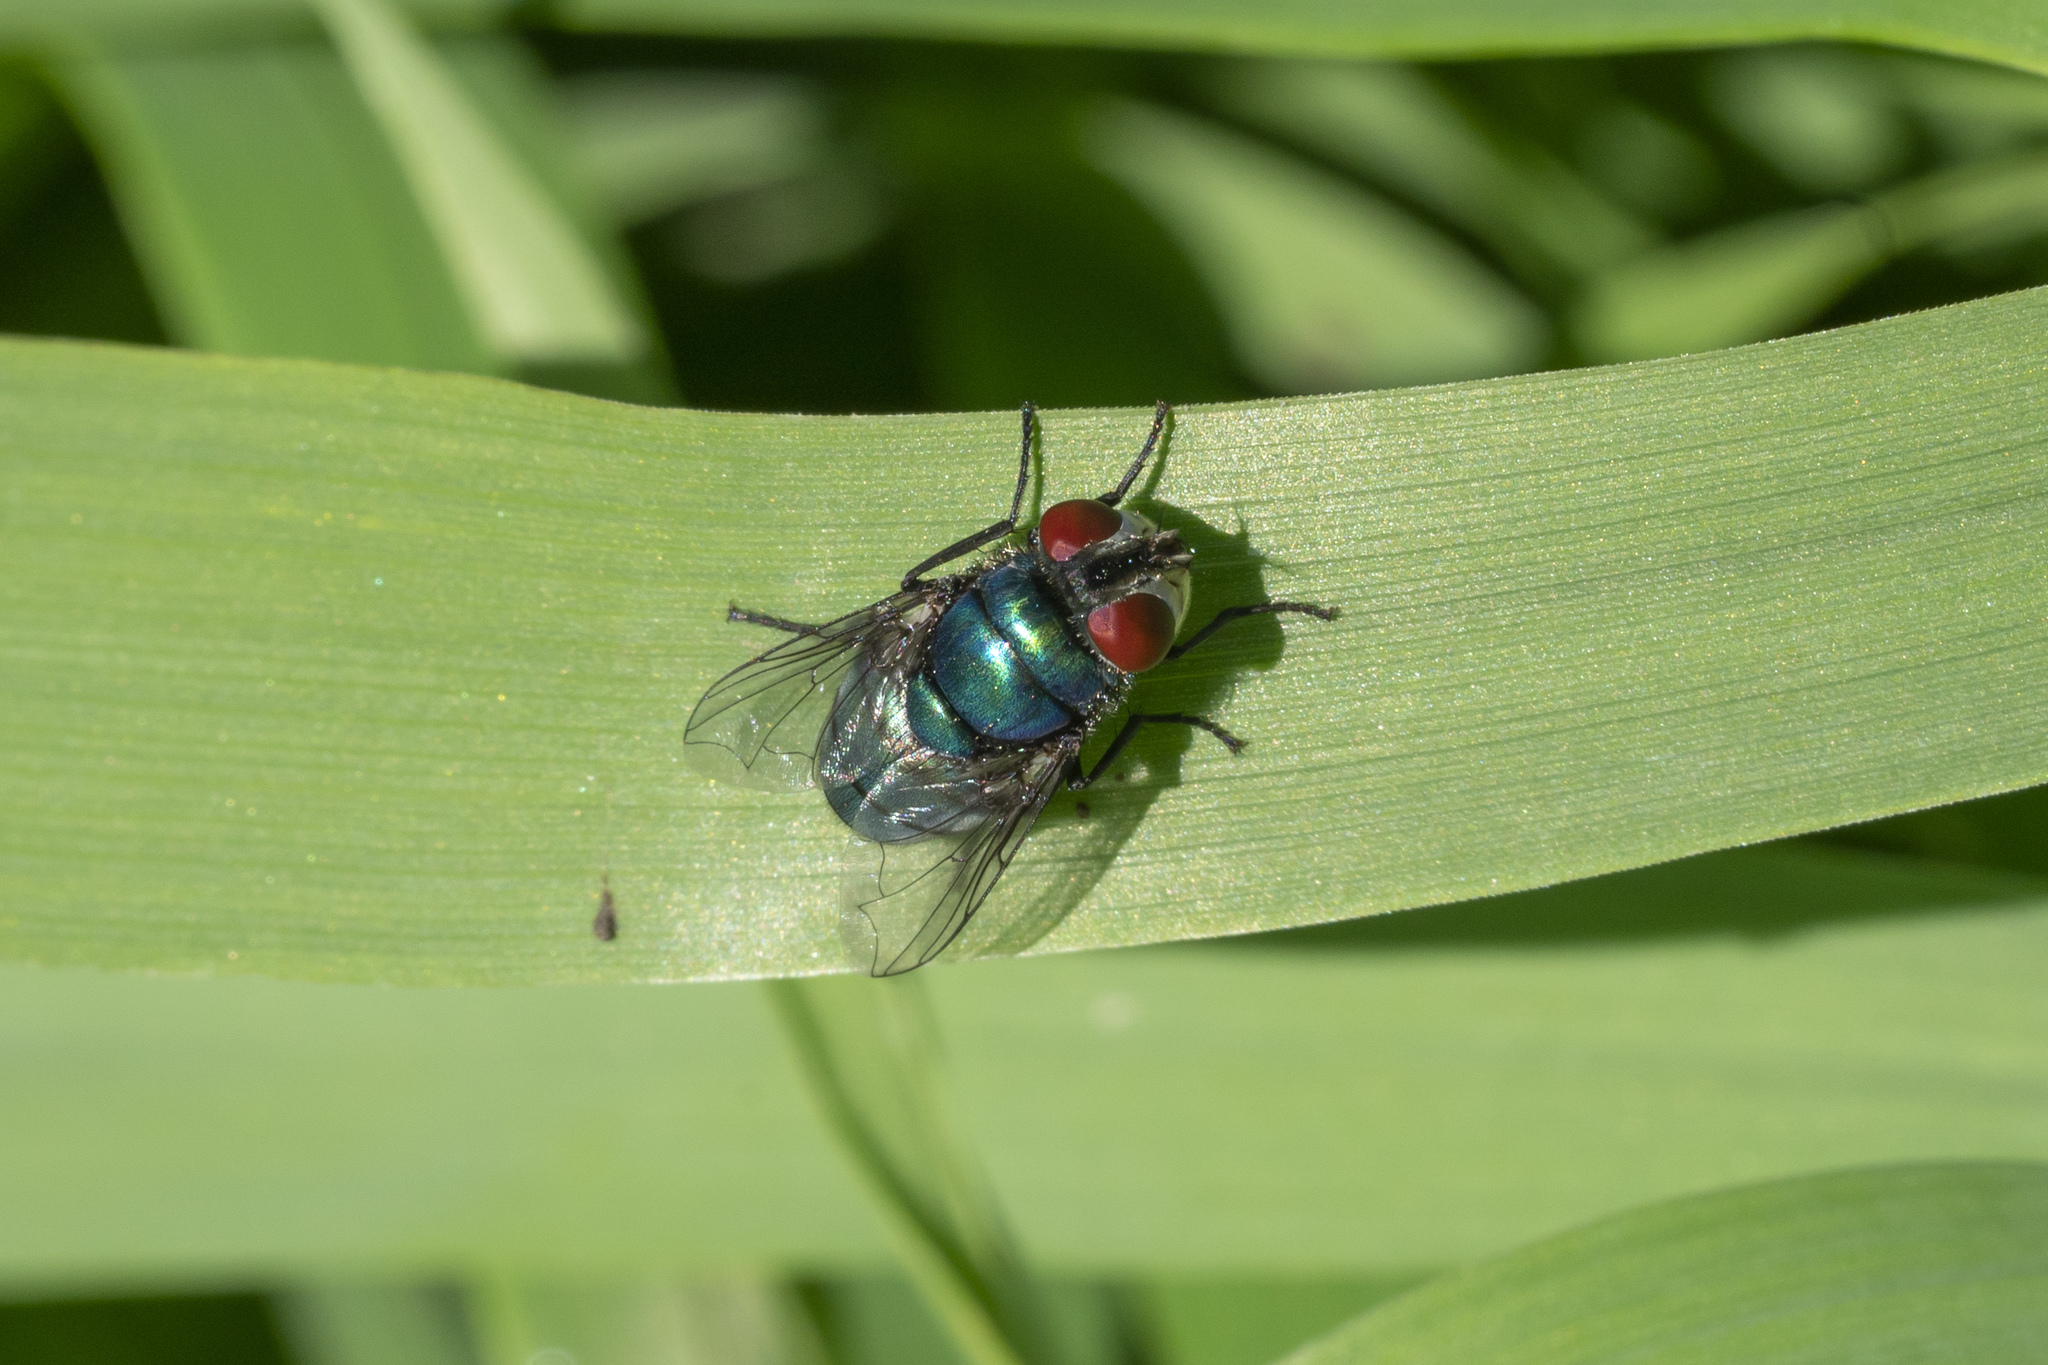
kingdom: Animalia
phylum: Arthropoda
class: Insecta
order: Diptera
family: Calliphoridae
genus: Chrysomya
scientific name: Chrysomya albiceps
